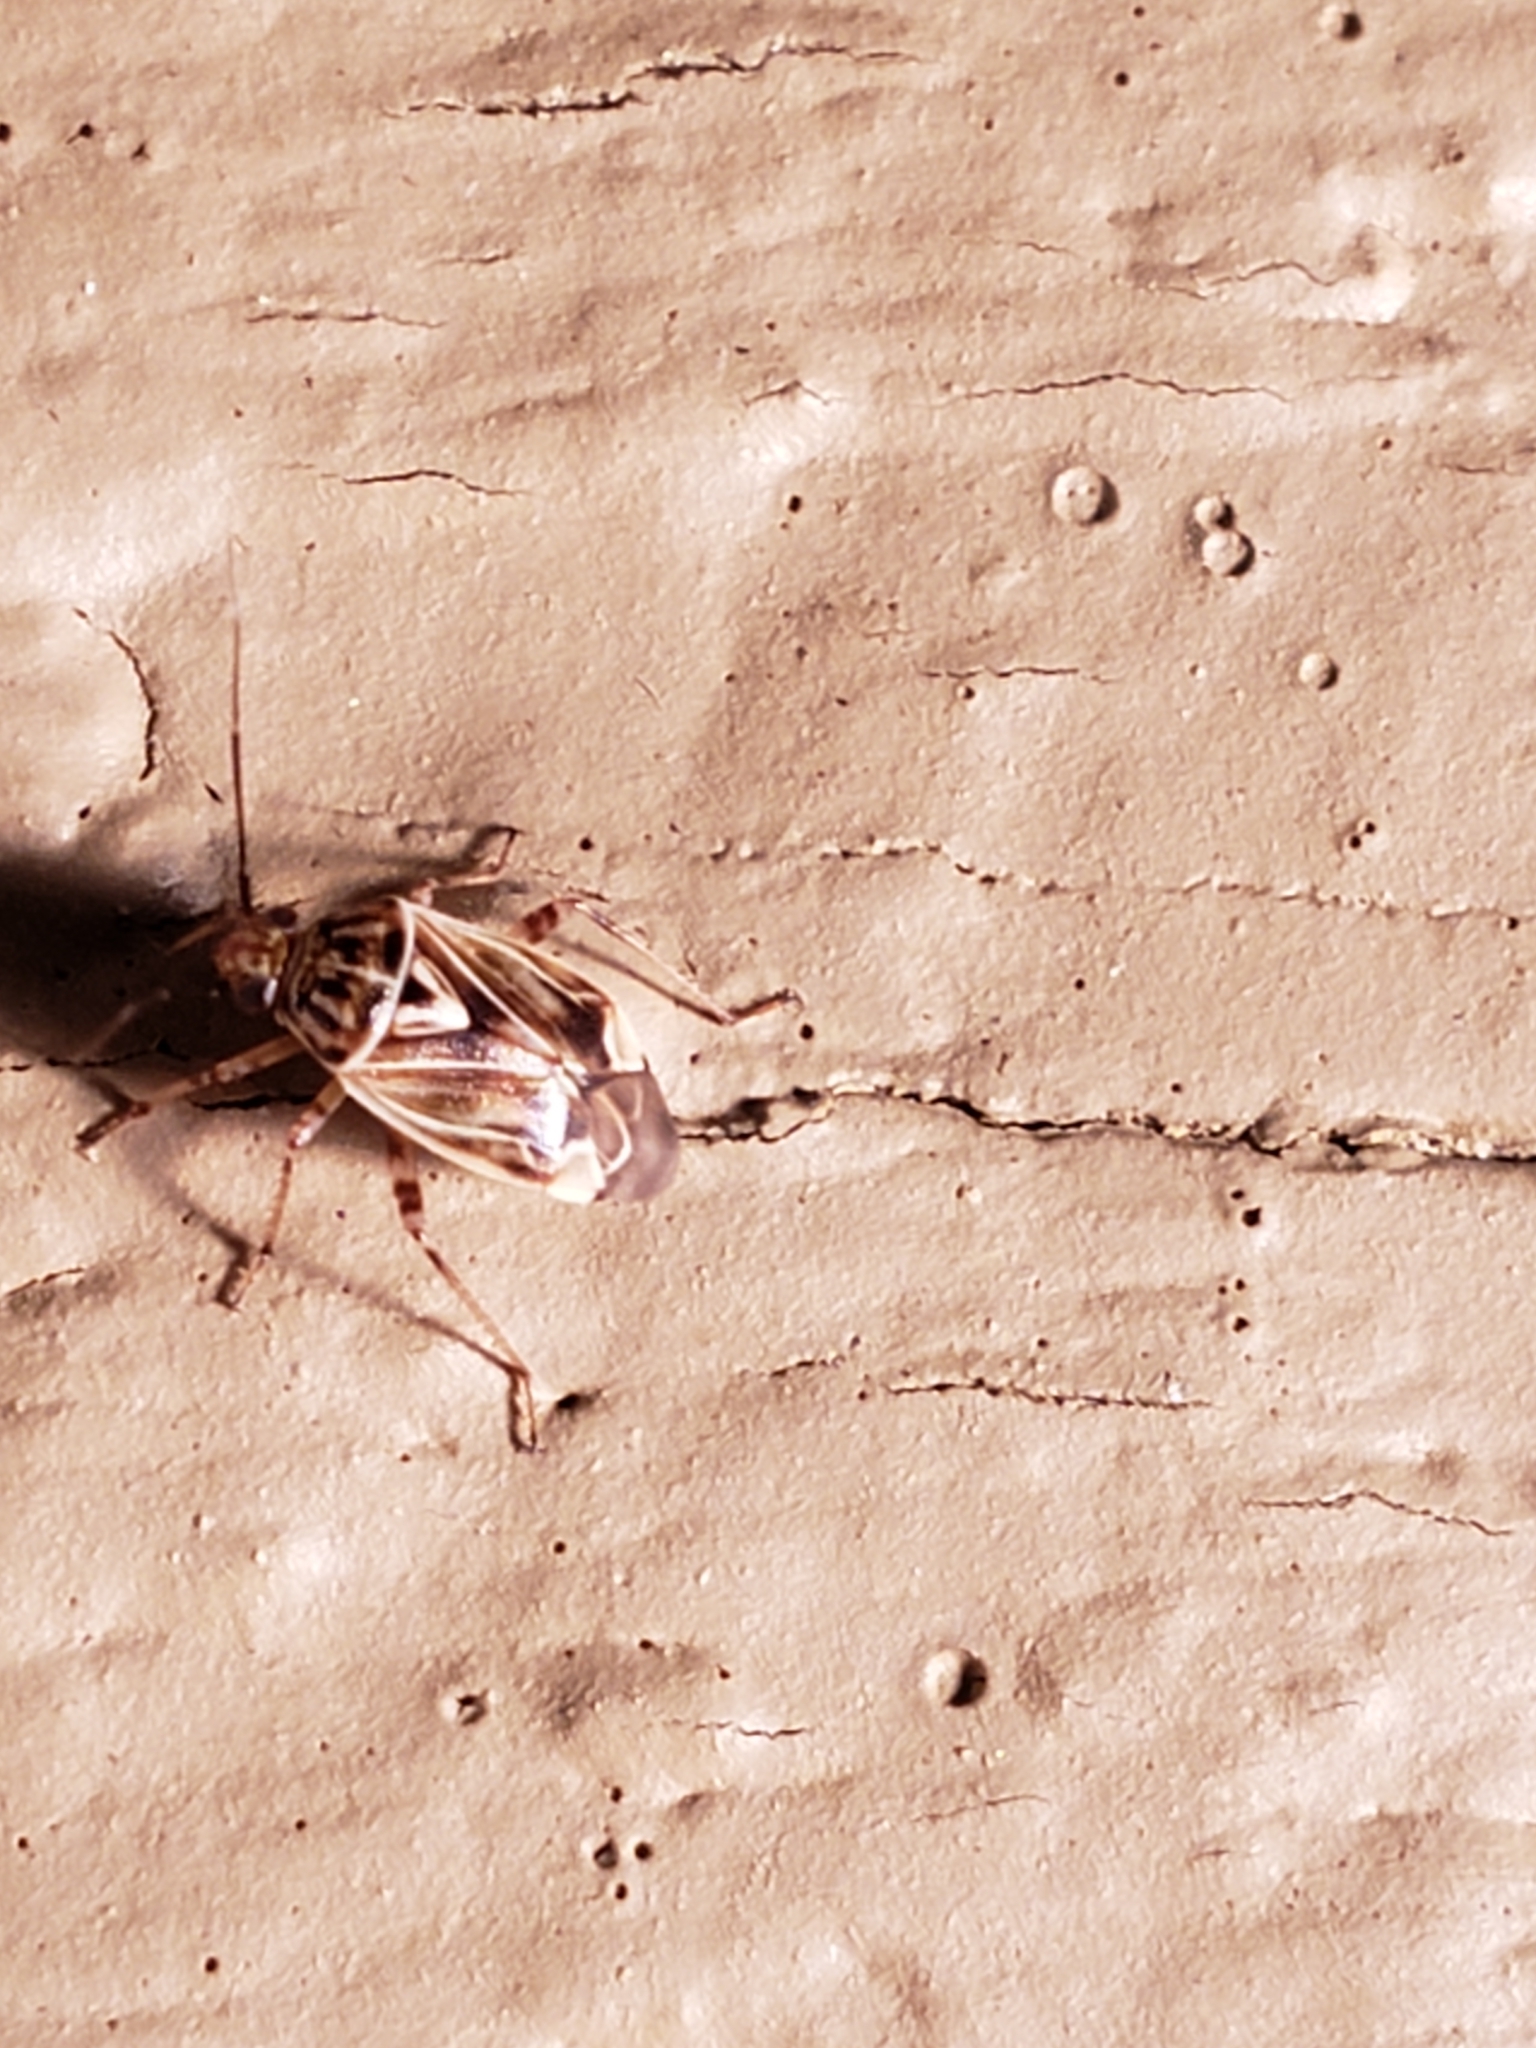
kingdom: Animalia
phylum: Arthropoda
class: Insecta
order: Hemiptera
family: Miridae
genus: Lygus
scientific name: Lygus lineolaris
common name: North american tarnished plant bug
